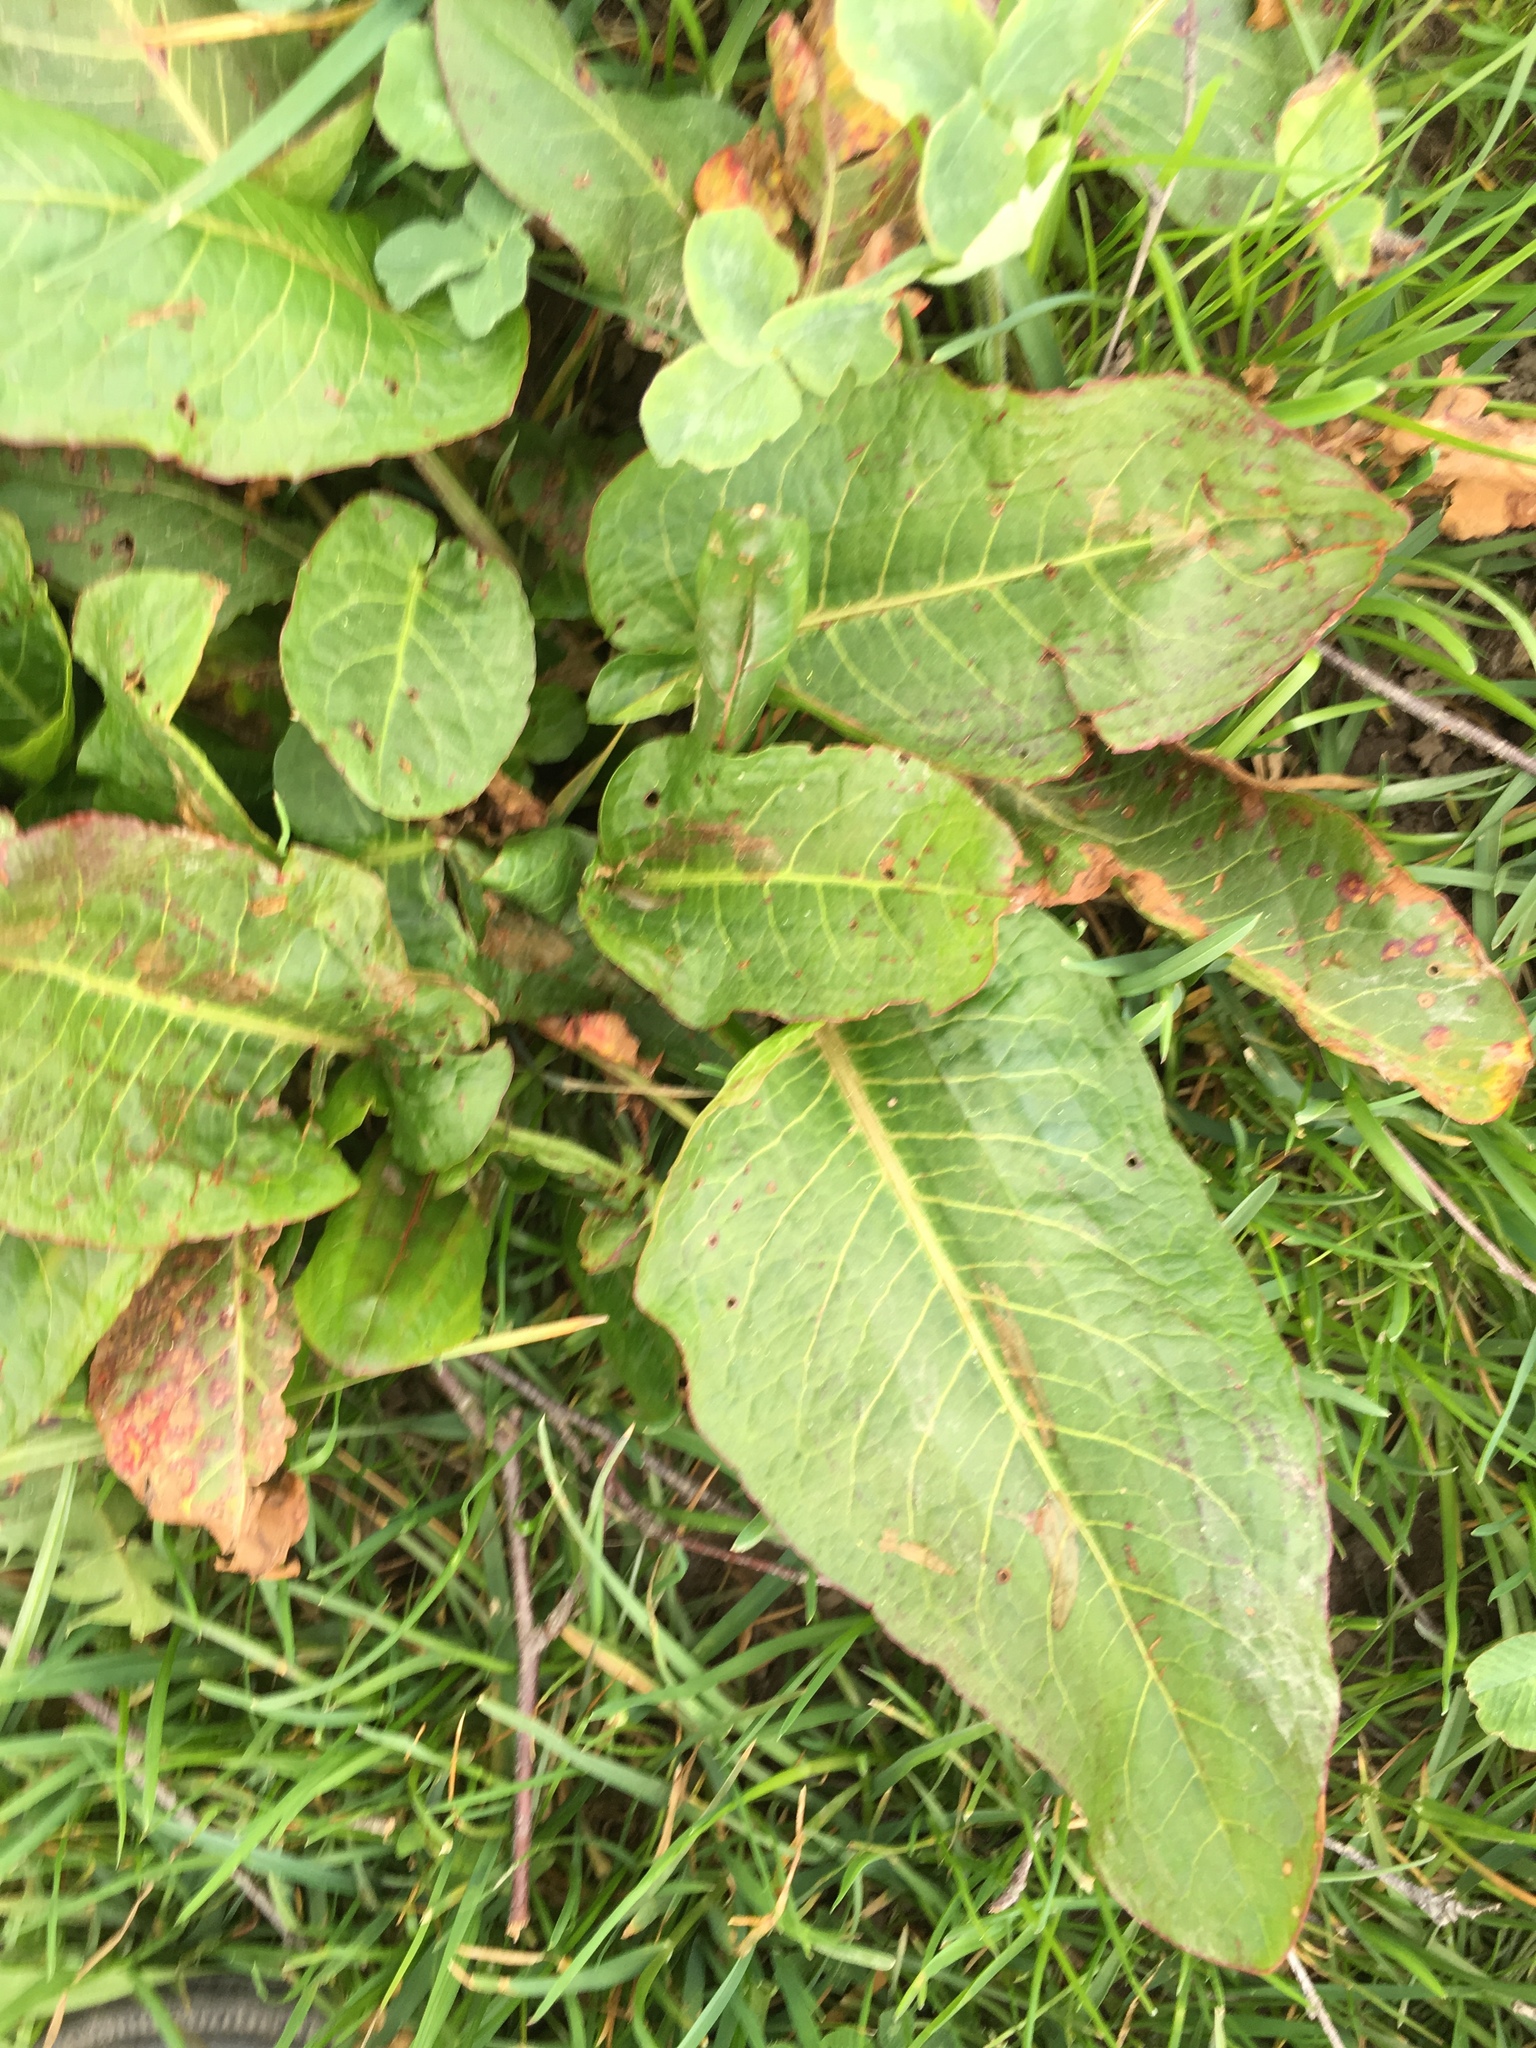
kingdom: Plantae
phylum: Tracheophyta
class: Magnoliopsida
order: Caryophyllales
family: Polygonaceae
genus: Rumex
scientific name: Rumex obtusifolius
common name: Bitter dock
